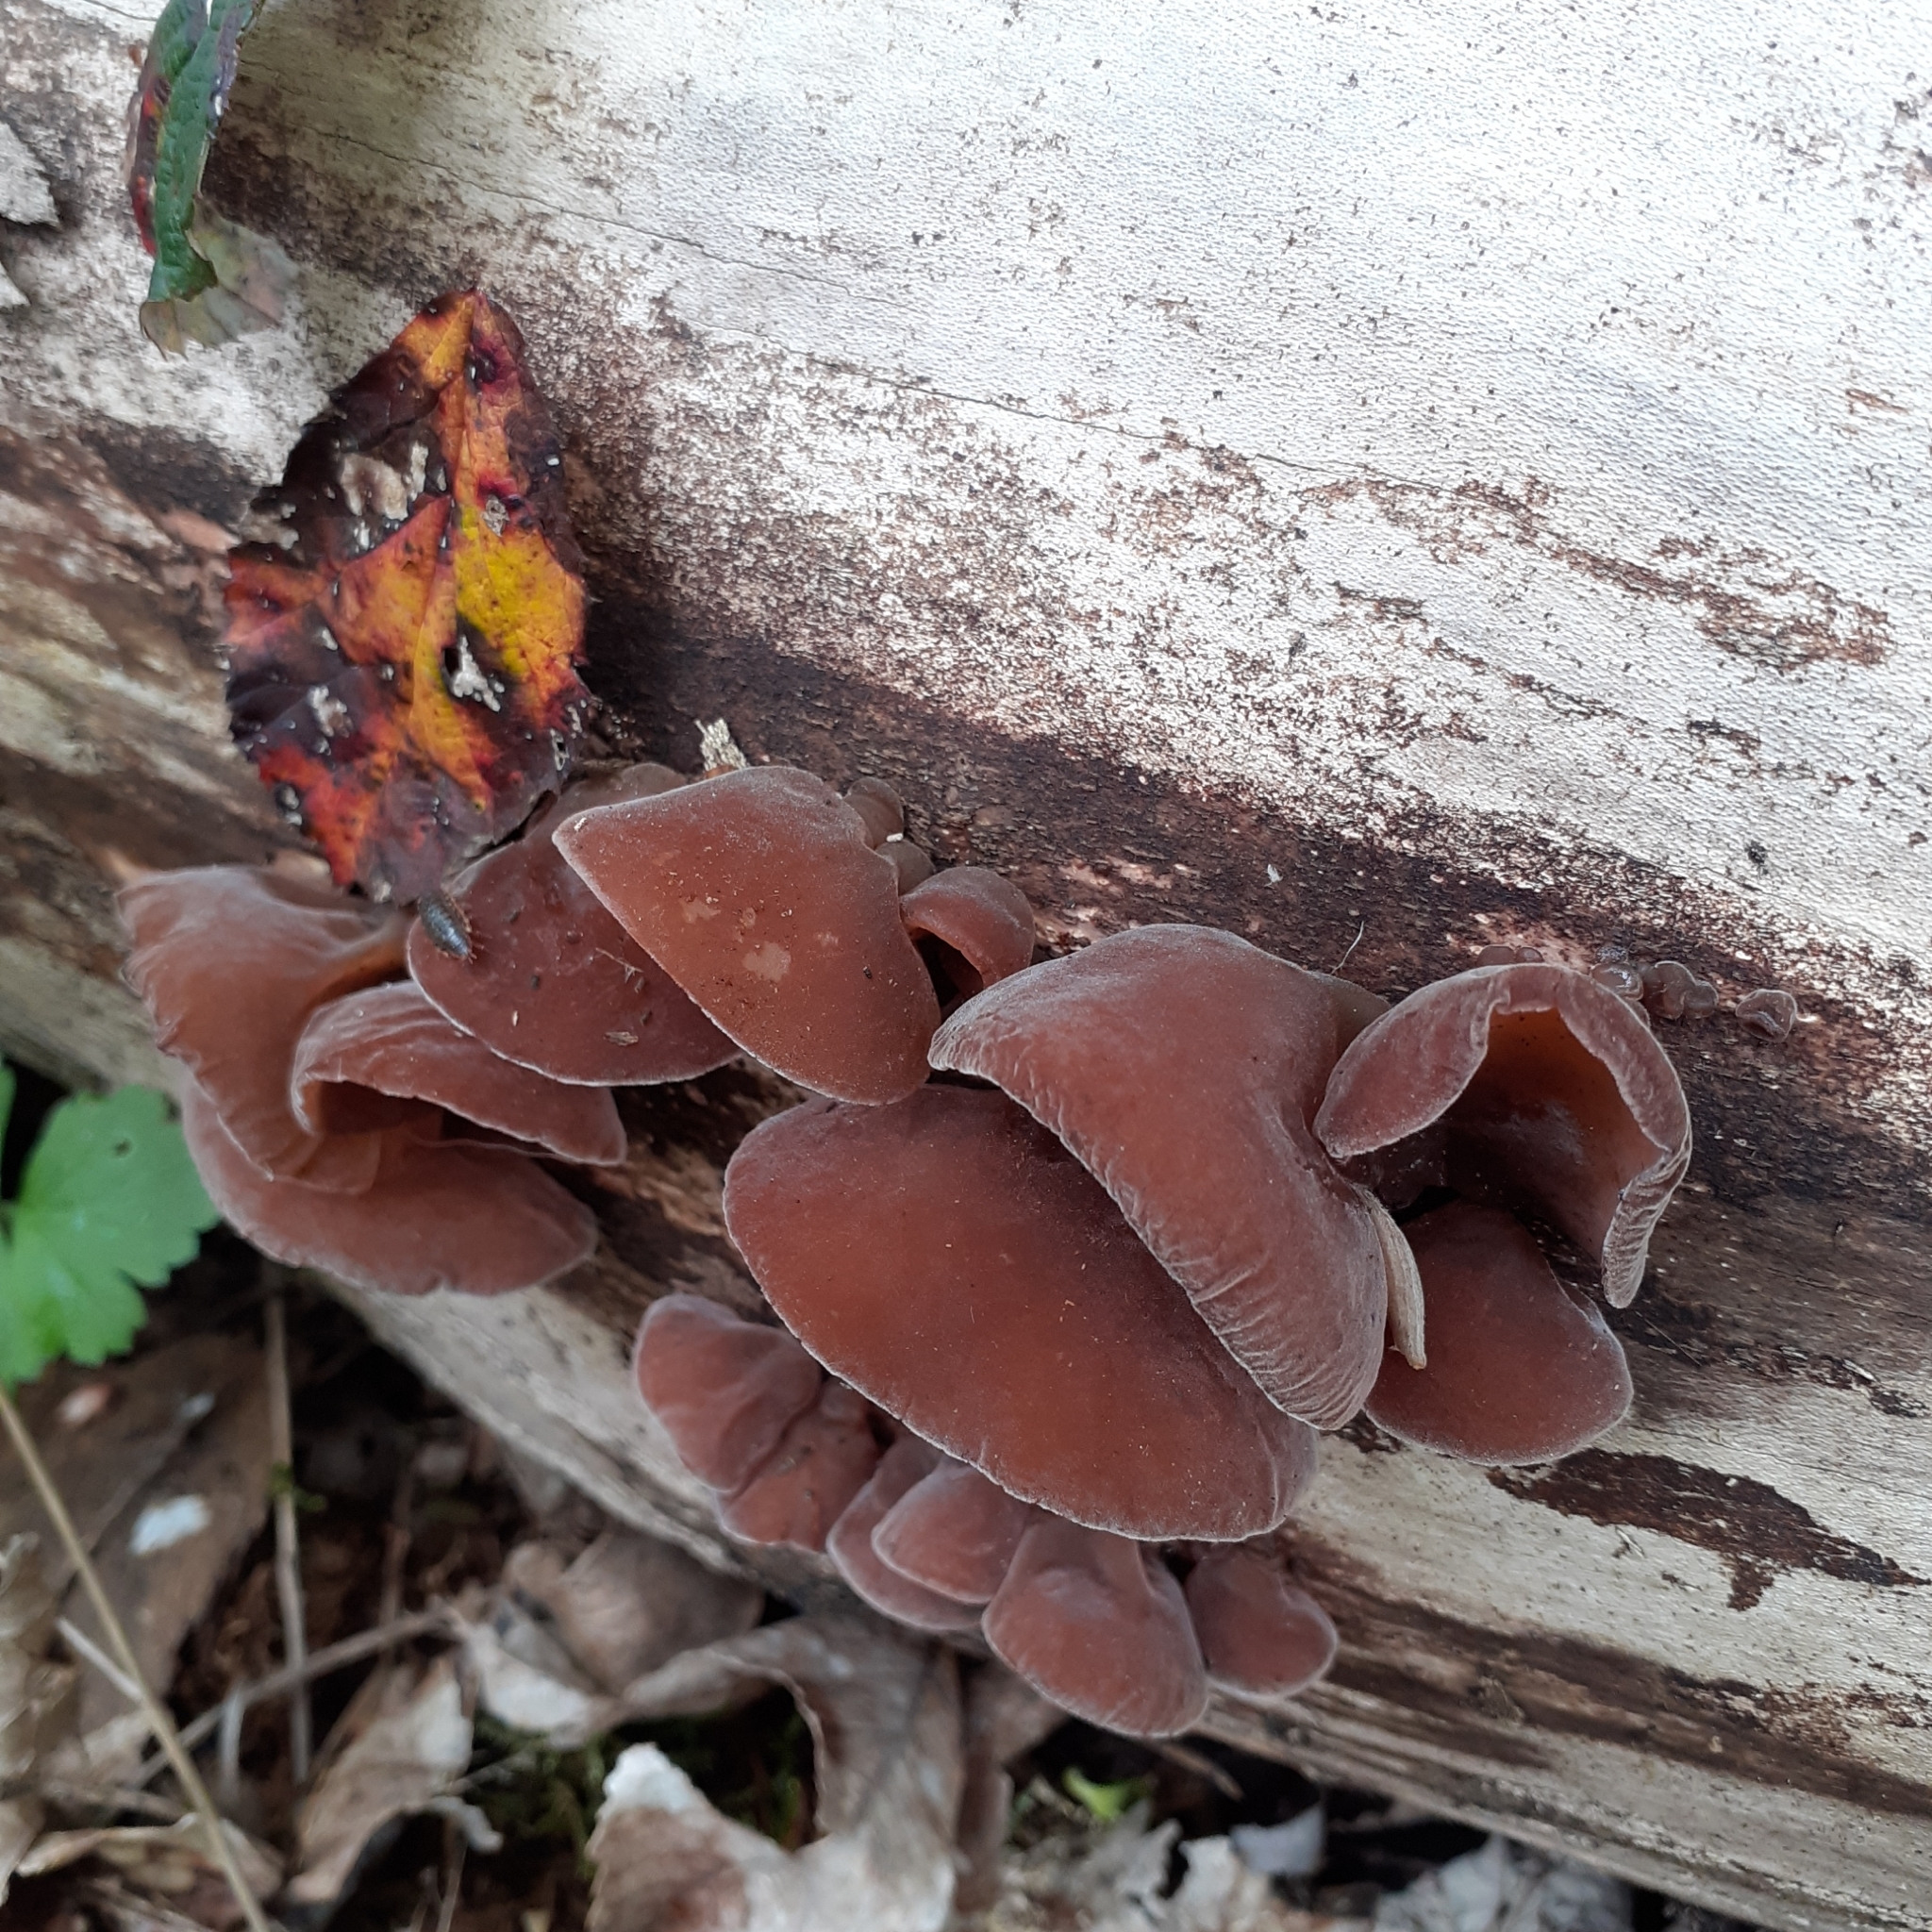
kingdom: Fungi
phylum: Basidiomycota
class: Agaricomycetes
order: Auriculariales
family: Auriculariaceae
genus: Auricularia
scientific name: Auricularia auricula-judae
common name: Jelly ear
